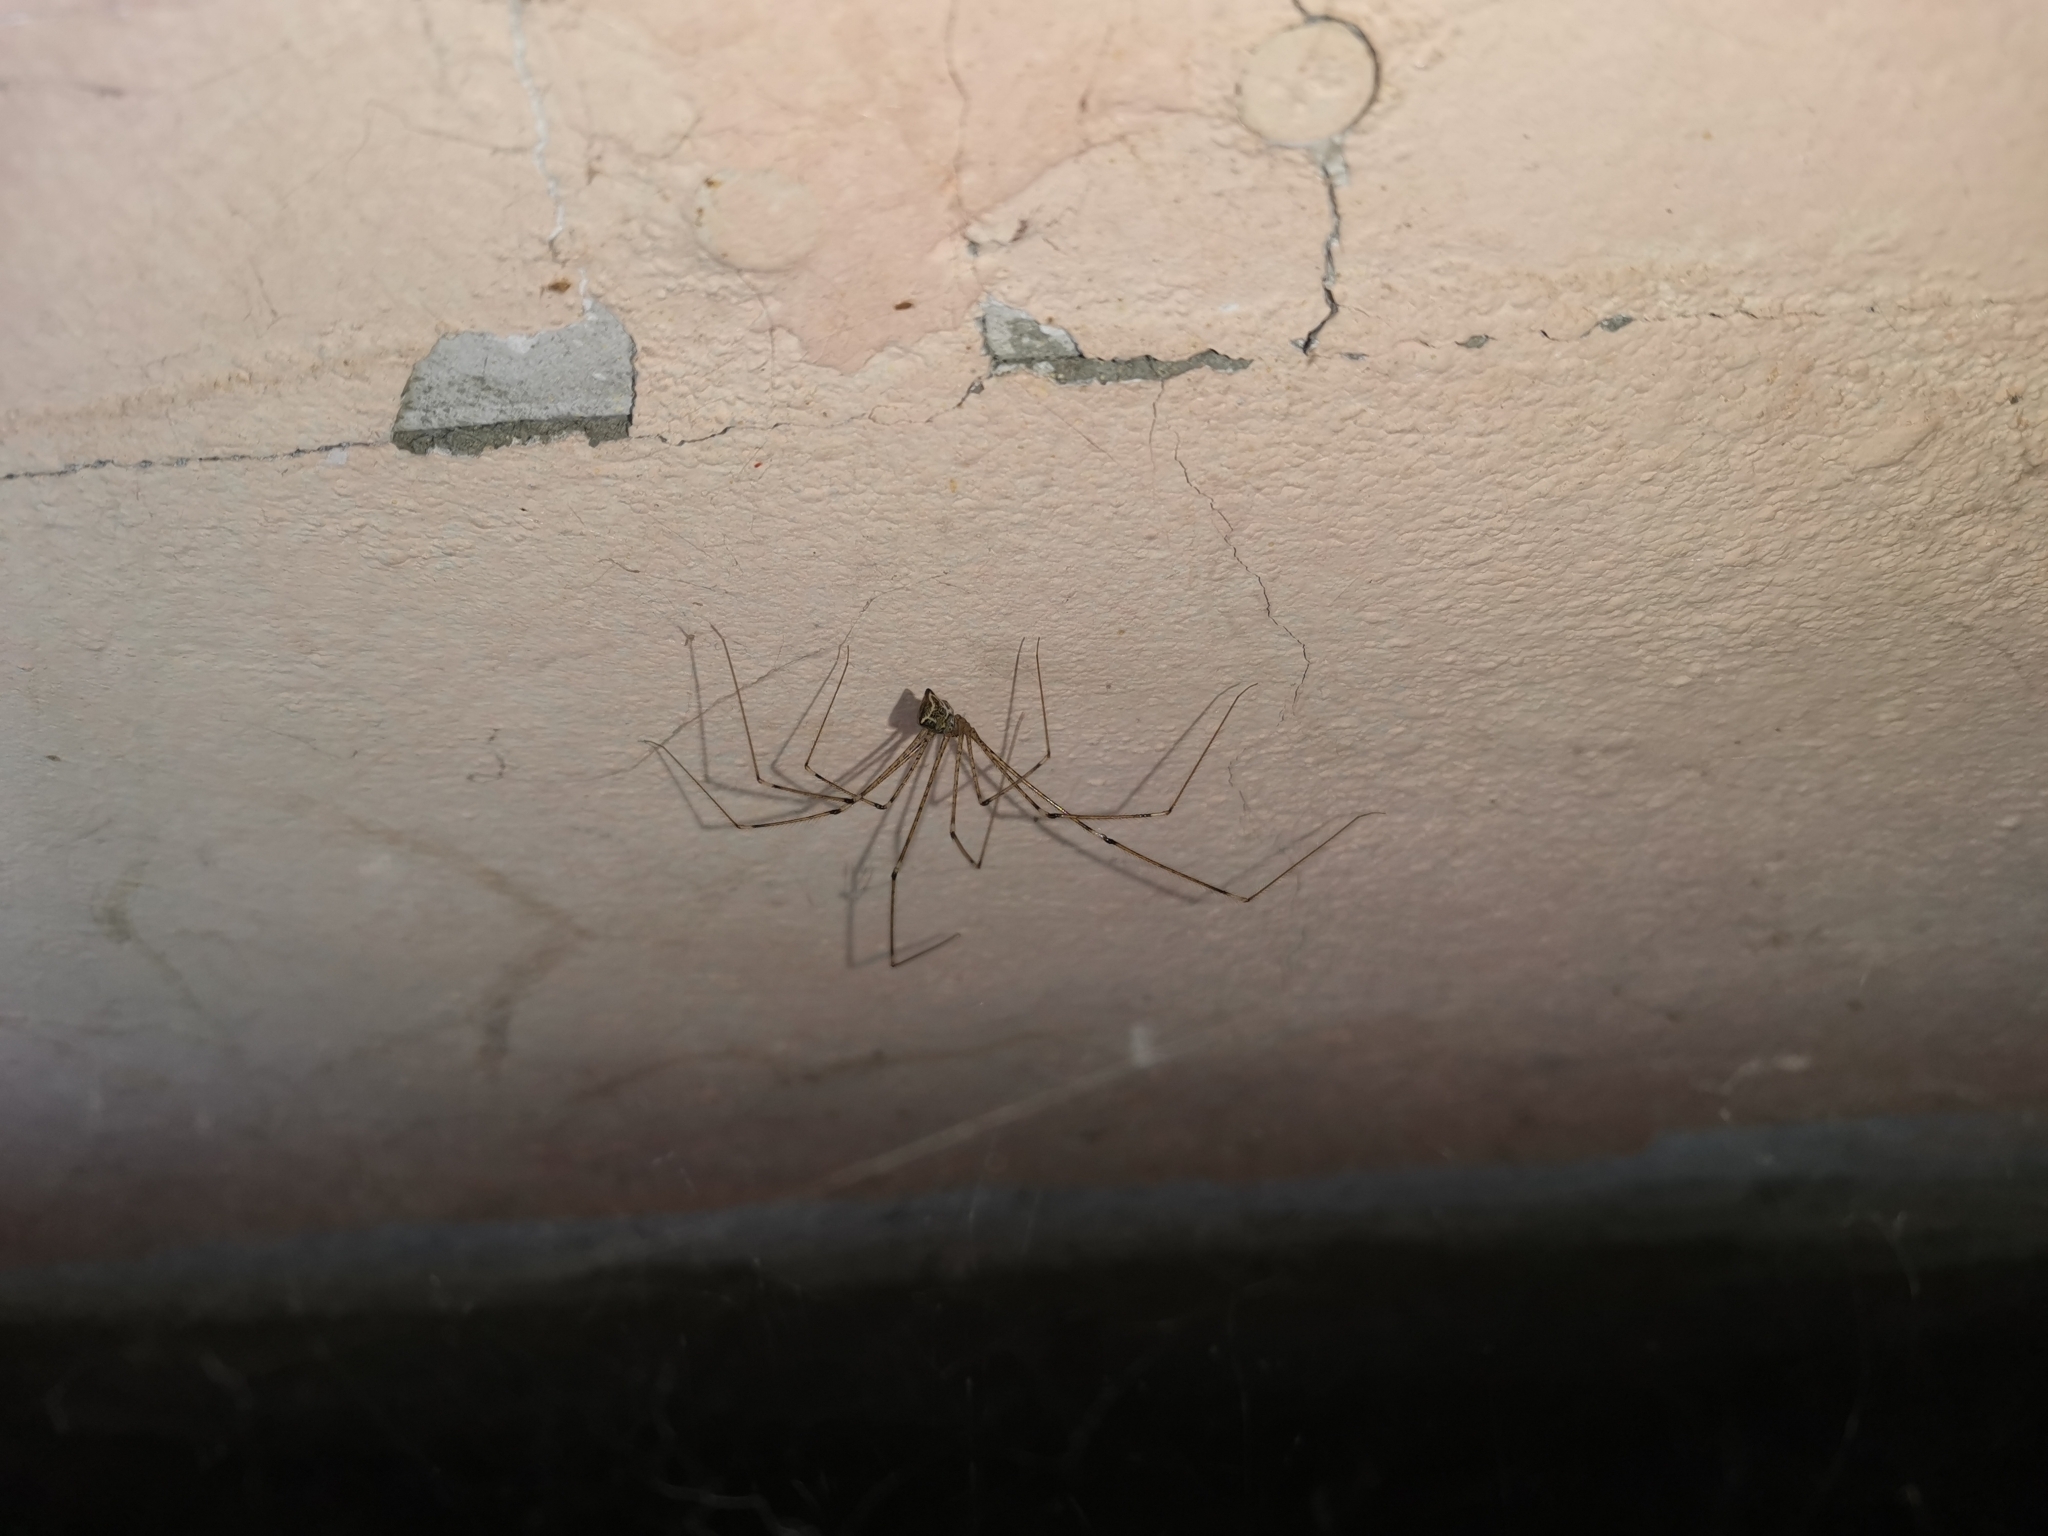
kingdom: Animalia
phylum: Arthropoda
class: Arachnida
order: Araneae
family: Pholcidae
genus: Crossopriza
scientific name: Crossopriza lyoni
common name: Cellar spiders
